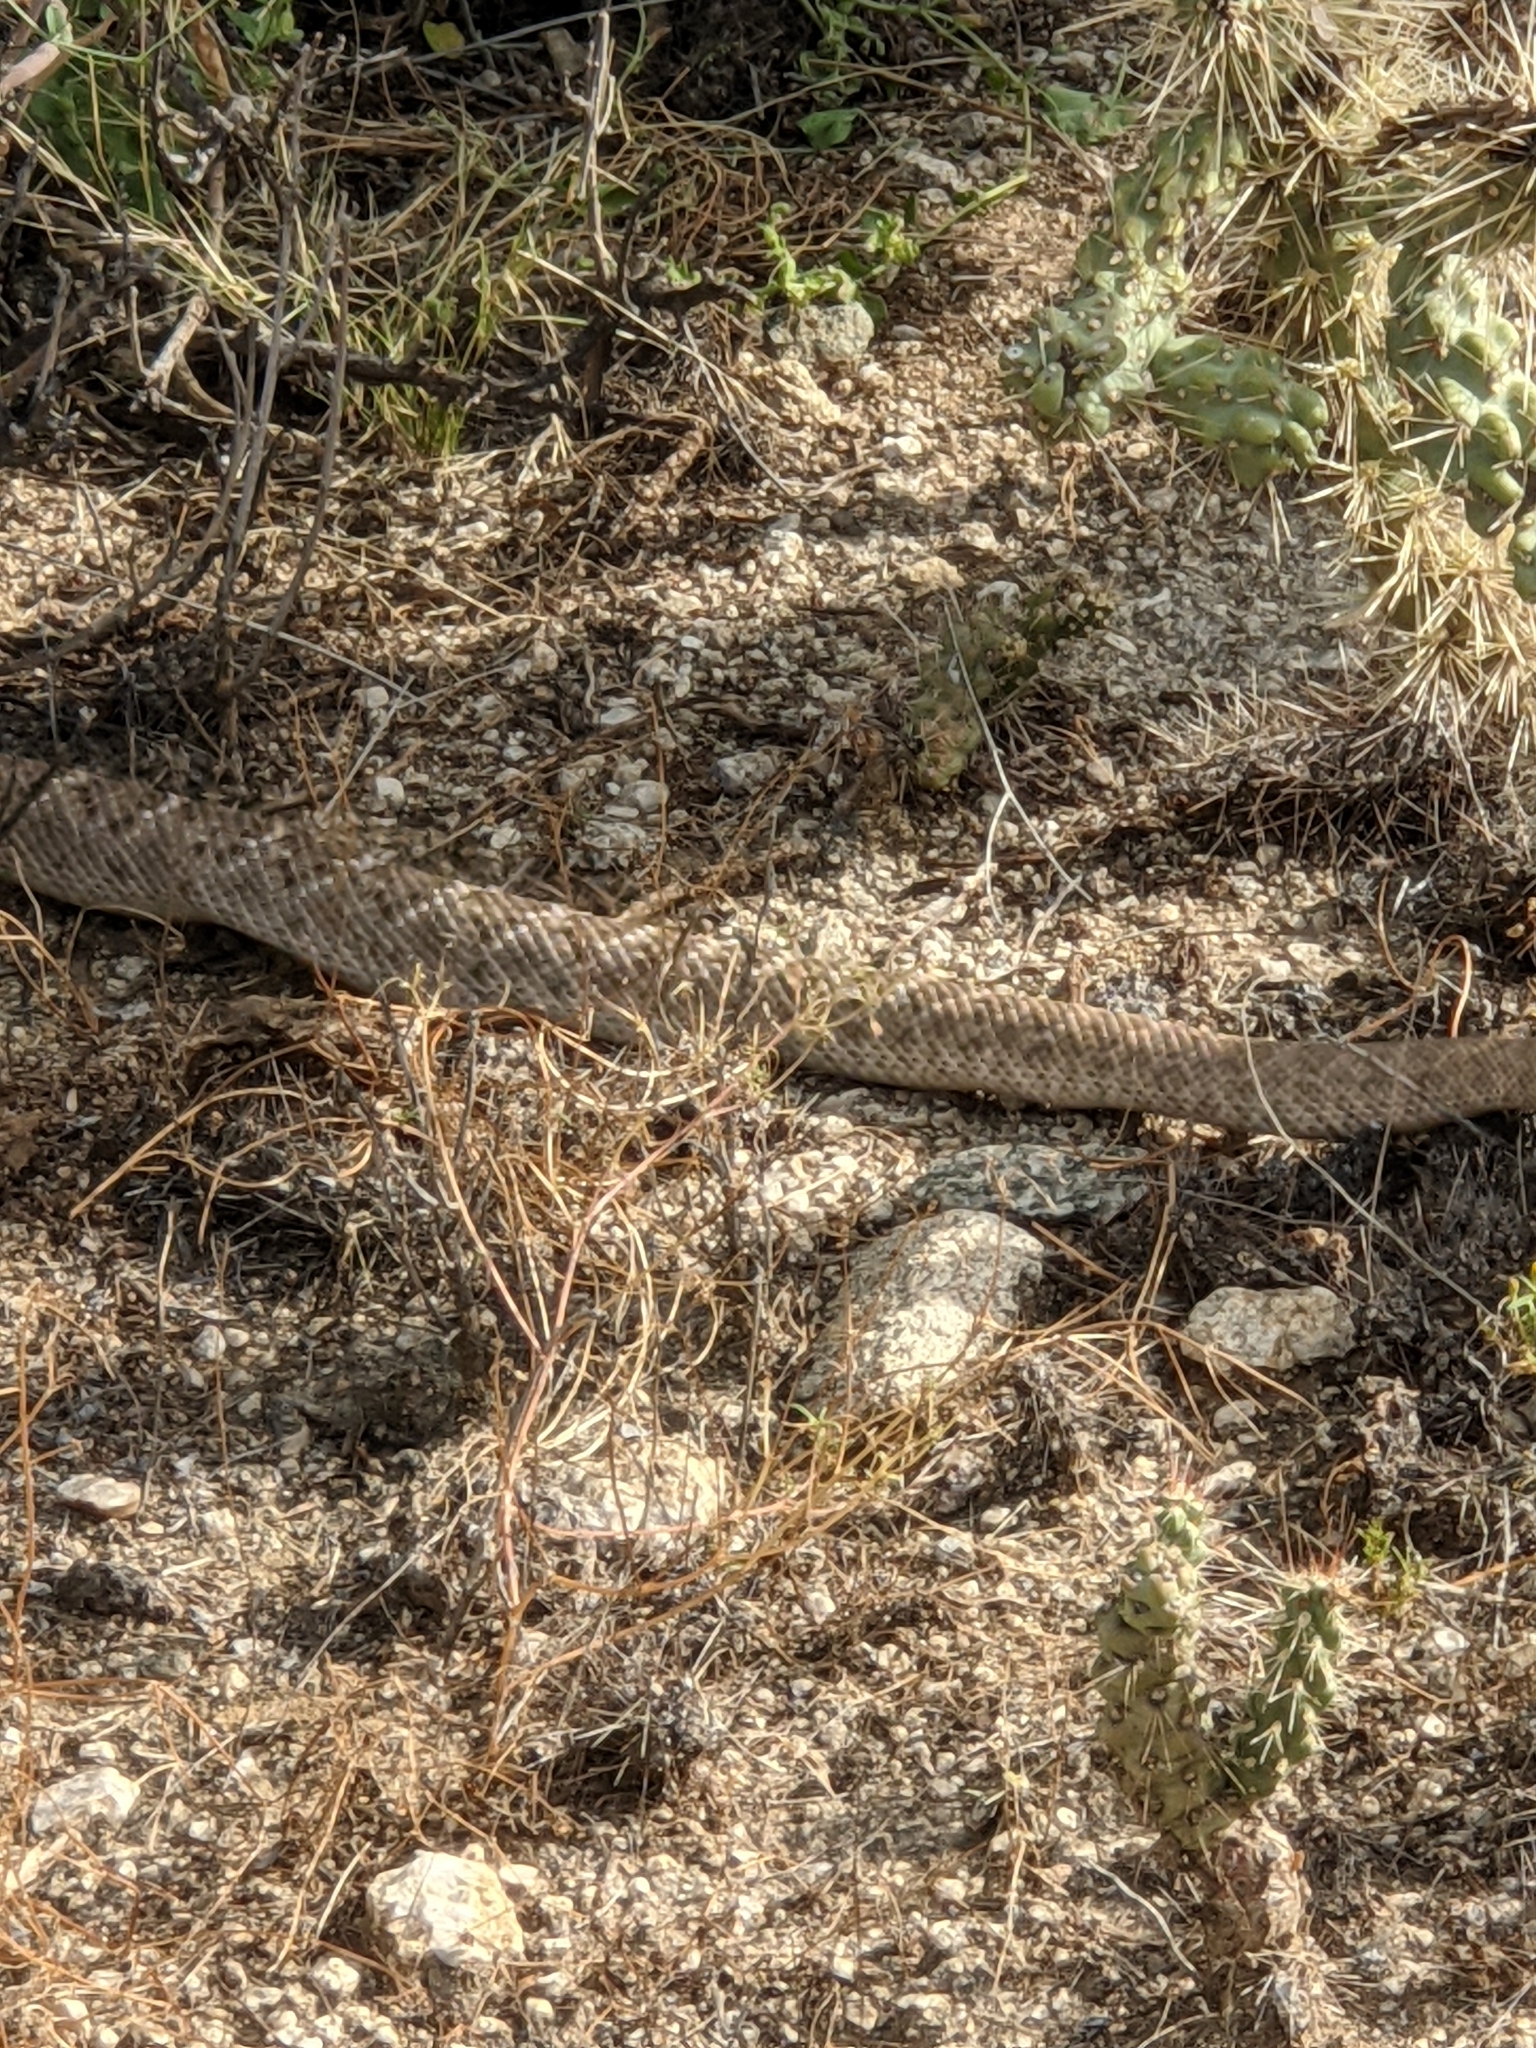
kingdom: Animalia
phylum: Chordata
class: Squamata
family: Viperidae
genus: Crotalus
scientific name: Crotalus atrox
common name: Western diamond-backed rattlesnake
